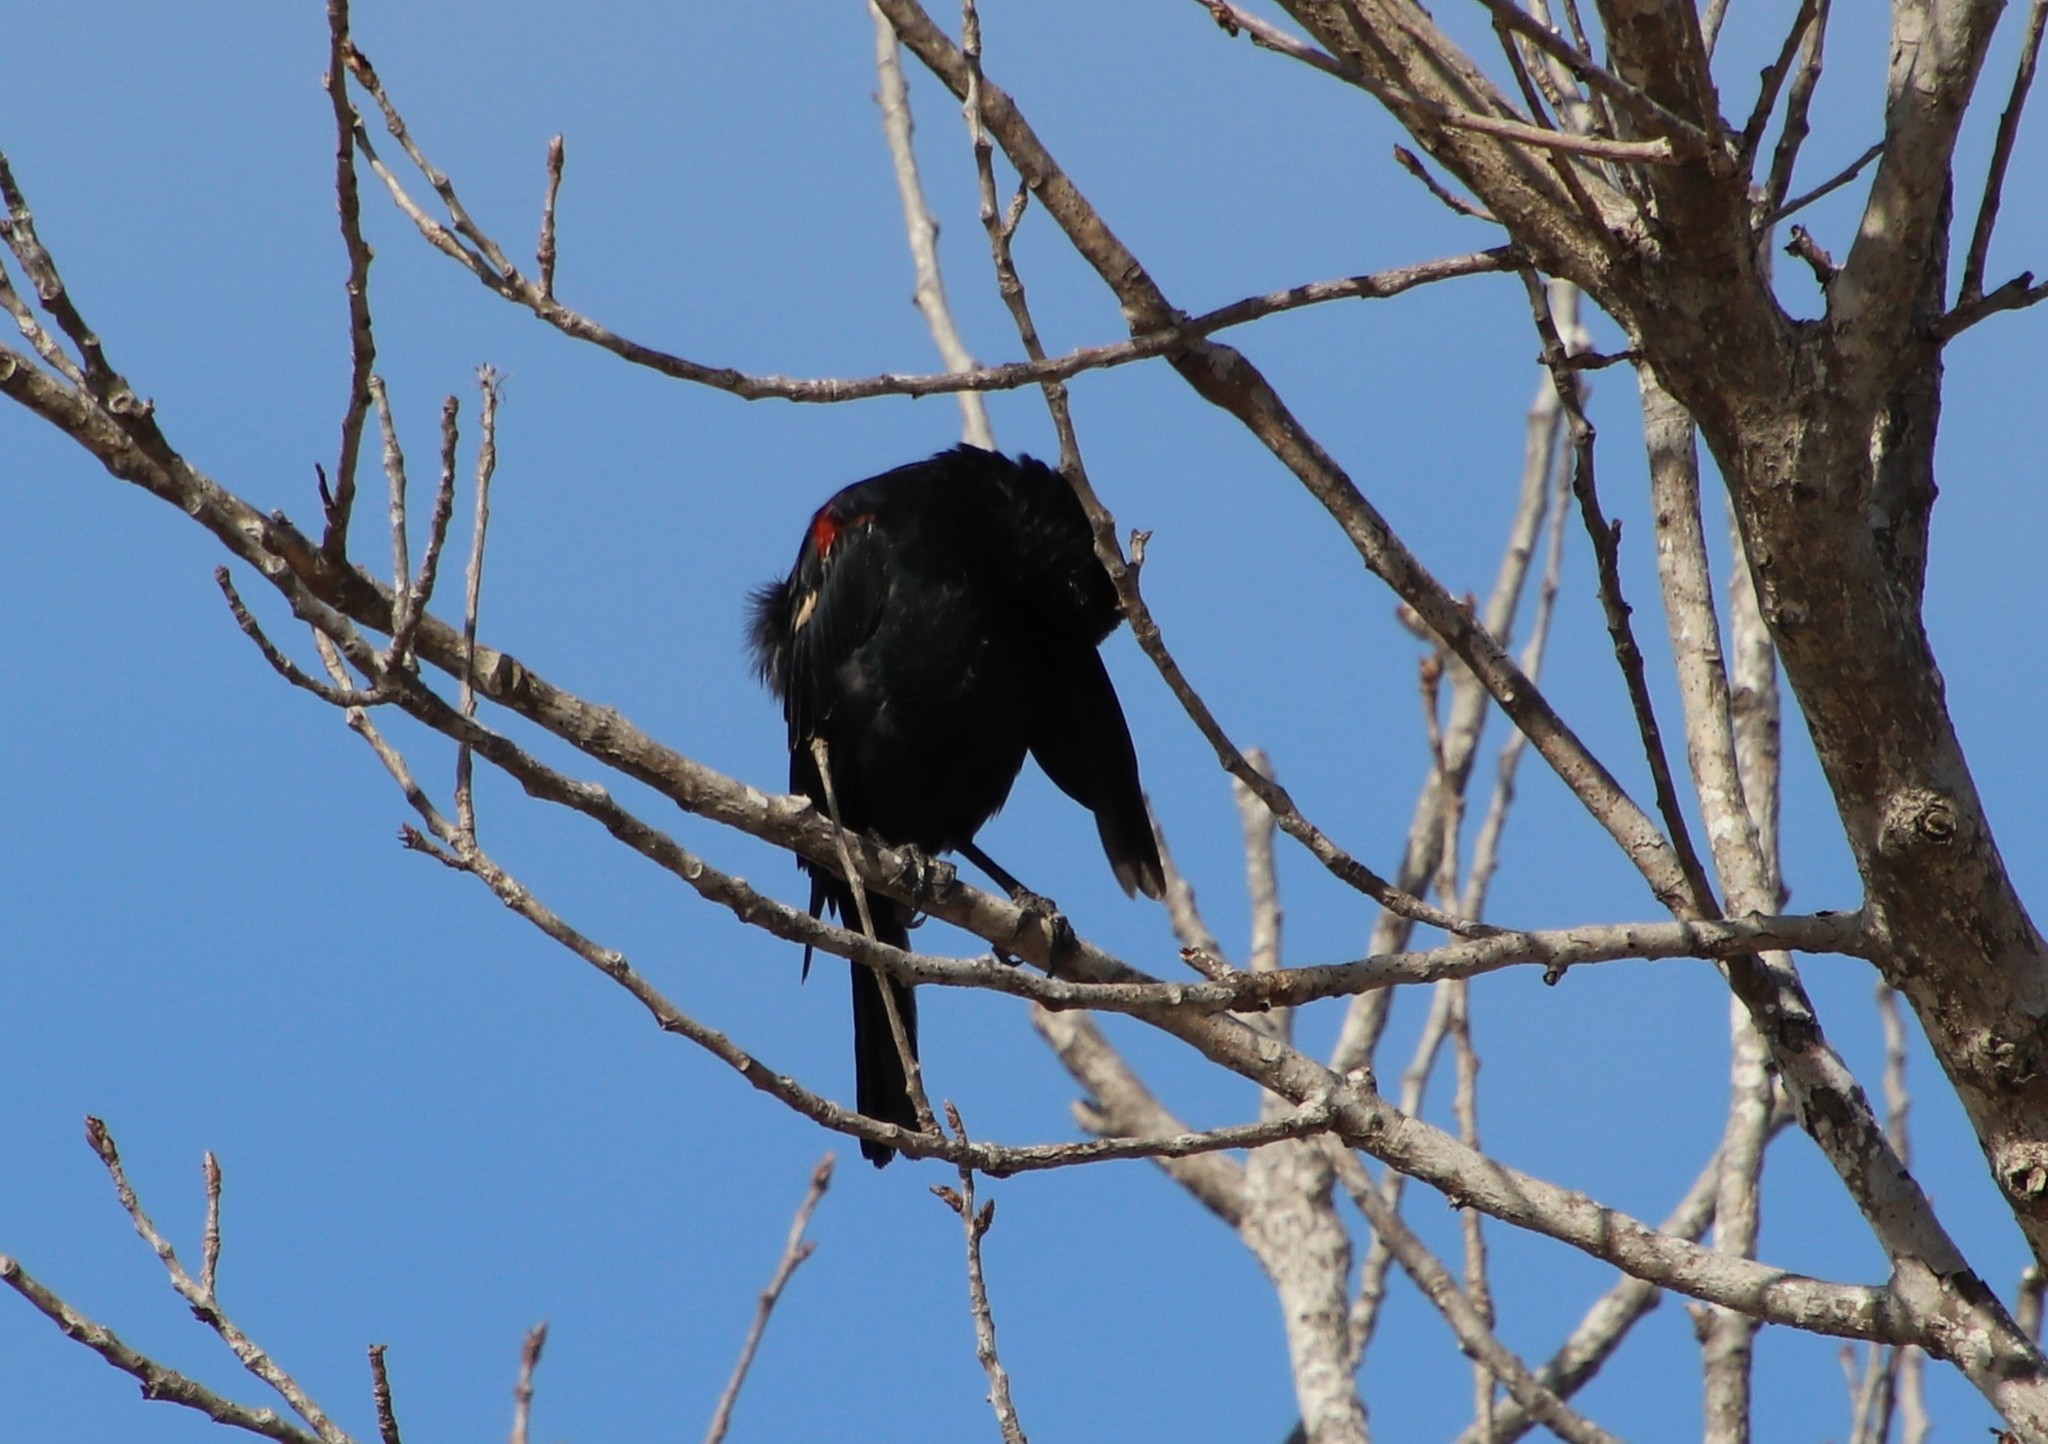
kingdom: Animalia
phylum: Chordata
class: Aves
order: Passeriformes
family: Icteridae
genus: Agelaius
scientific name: Agelaius tricolor
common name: Tricolored blackbird
